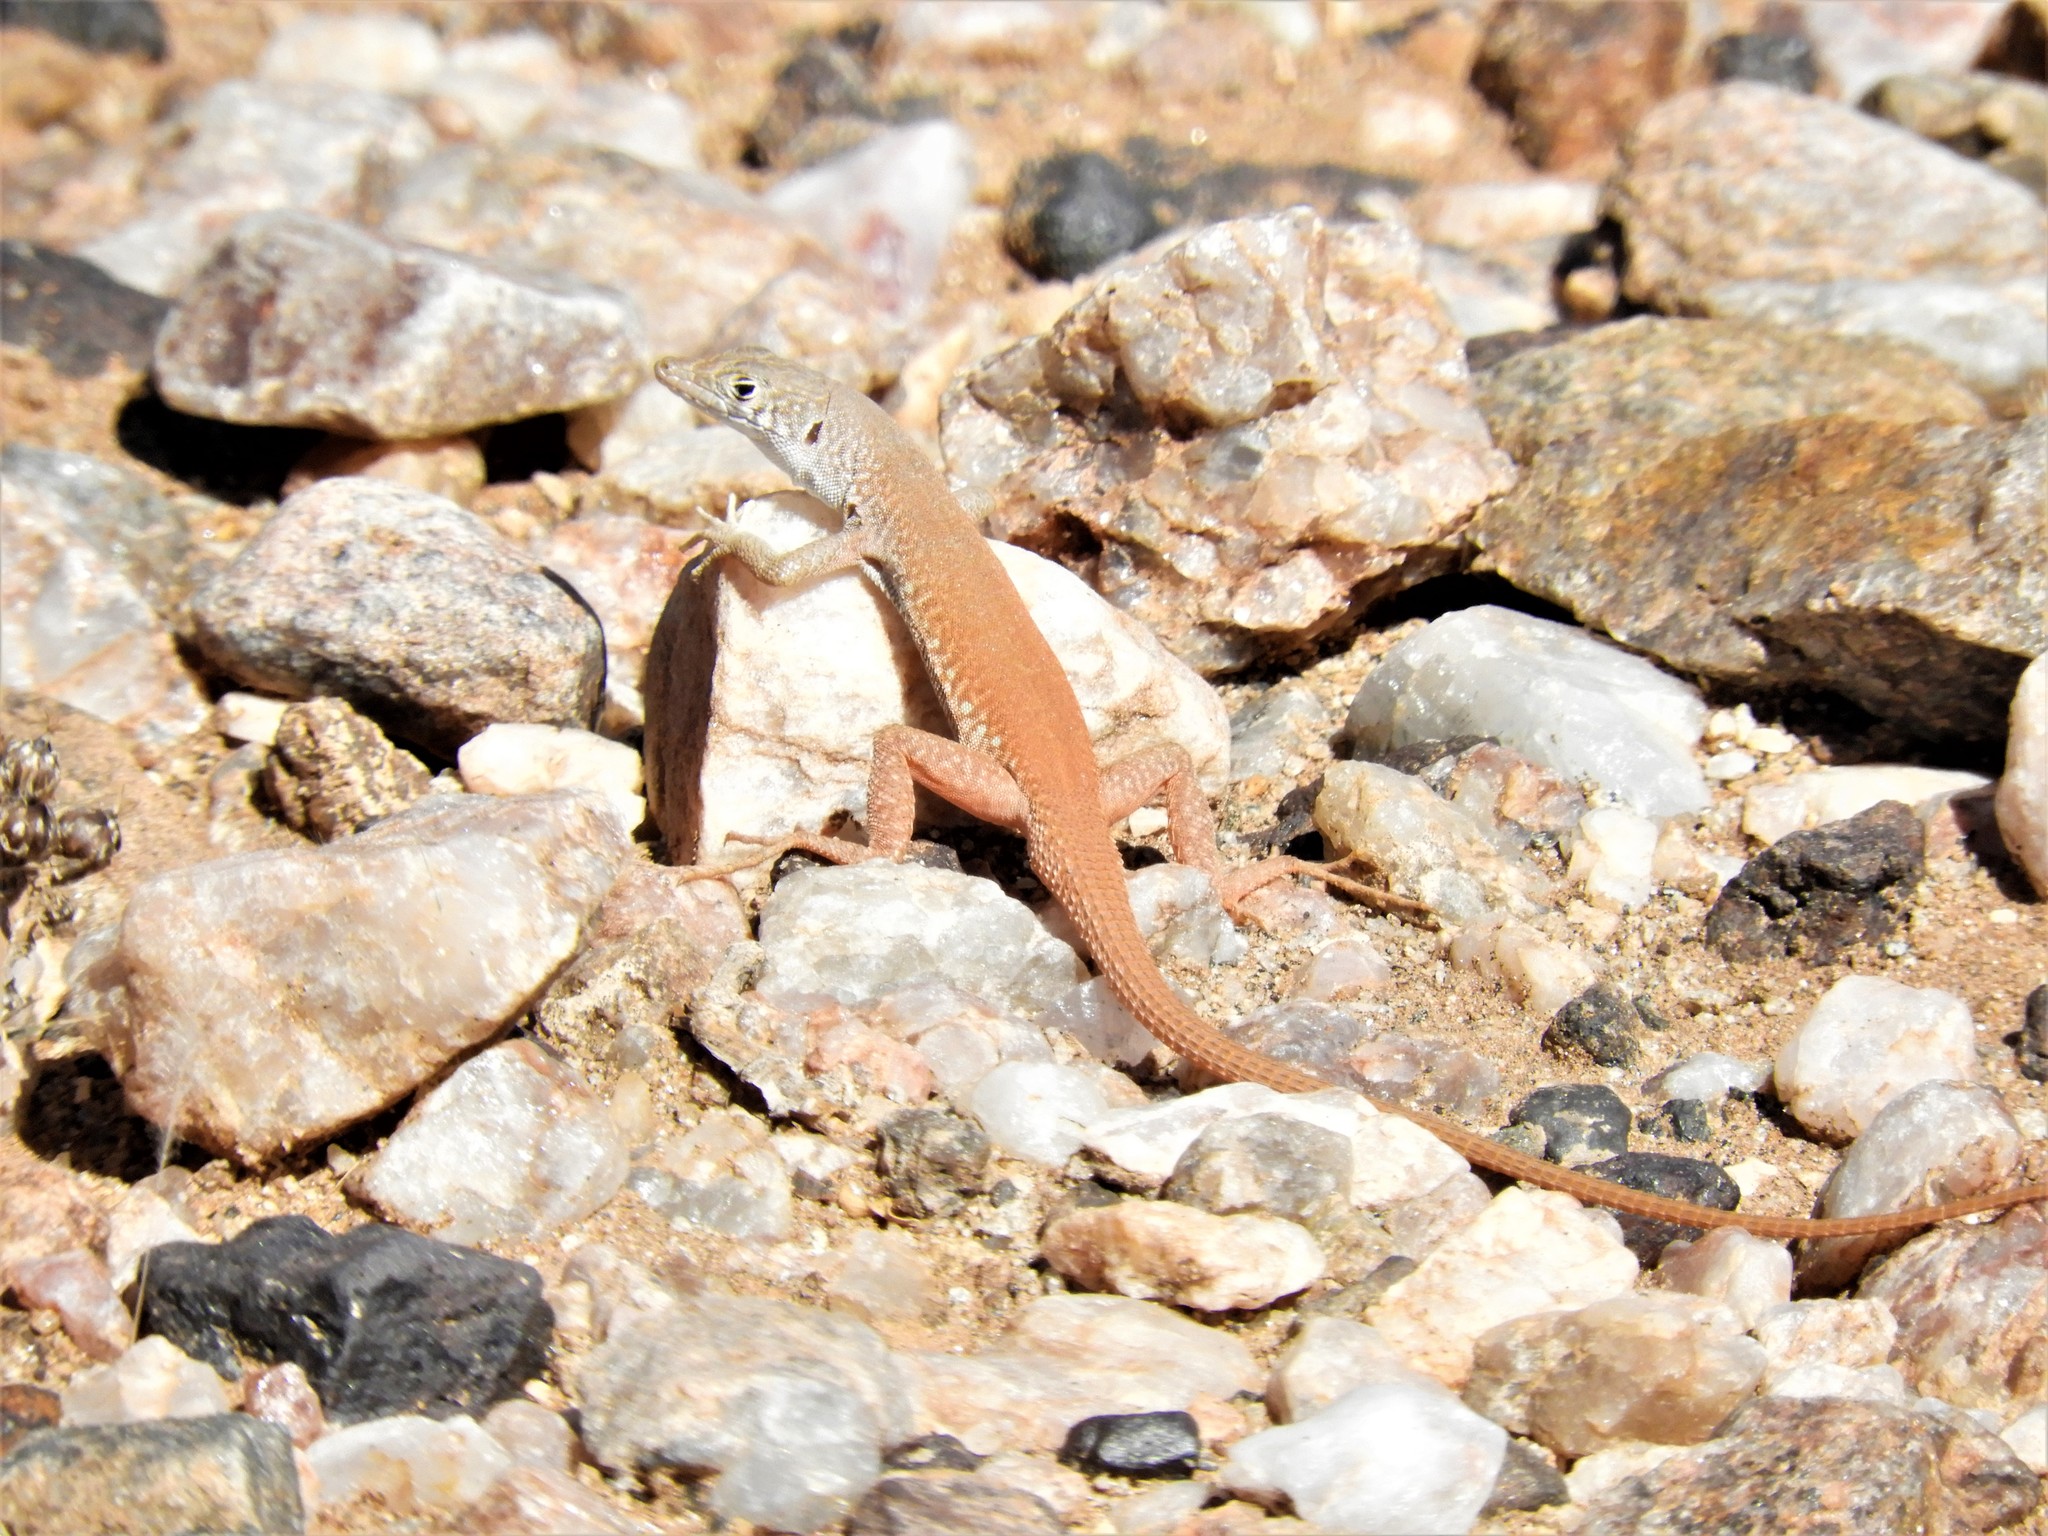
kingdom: Animalia
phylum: Chordata
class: Squamata
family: Lacertidae
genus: Pedioplanis
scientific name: Pedioplanis inornata
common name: Plain sand lizard
